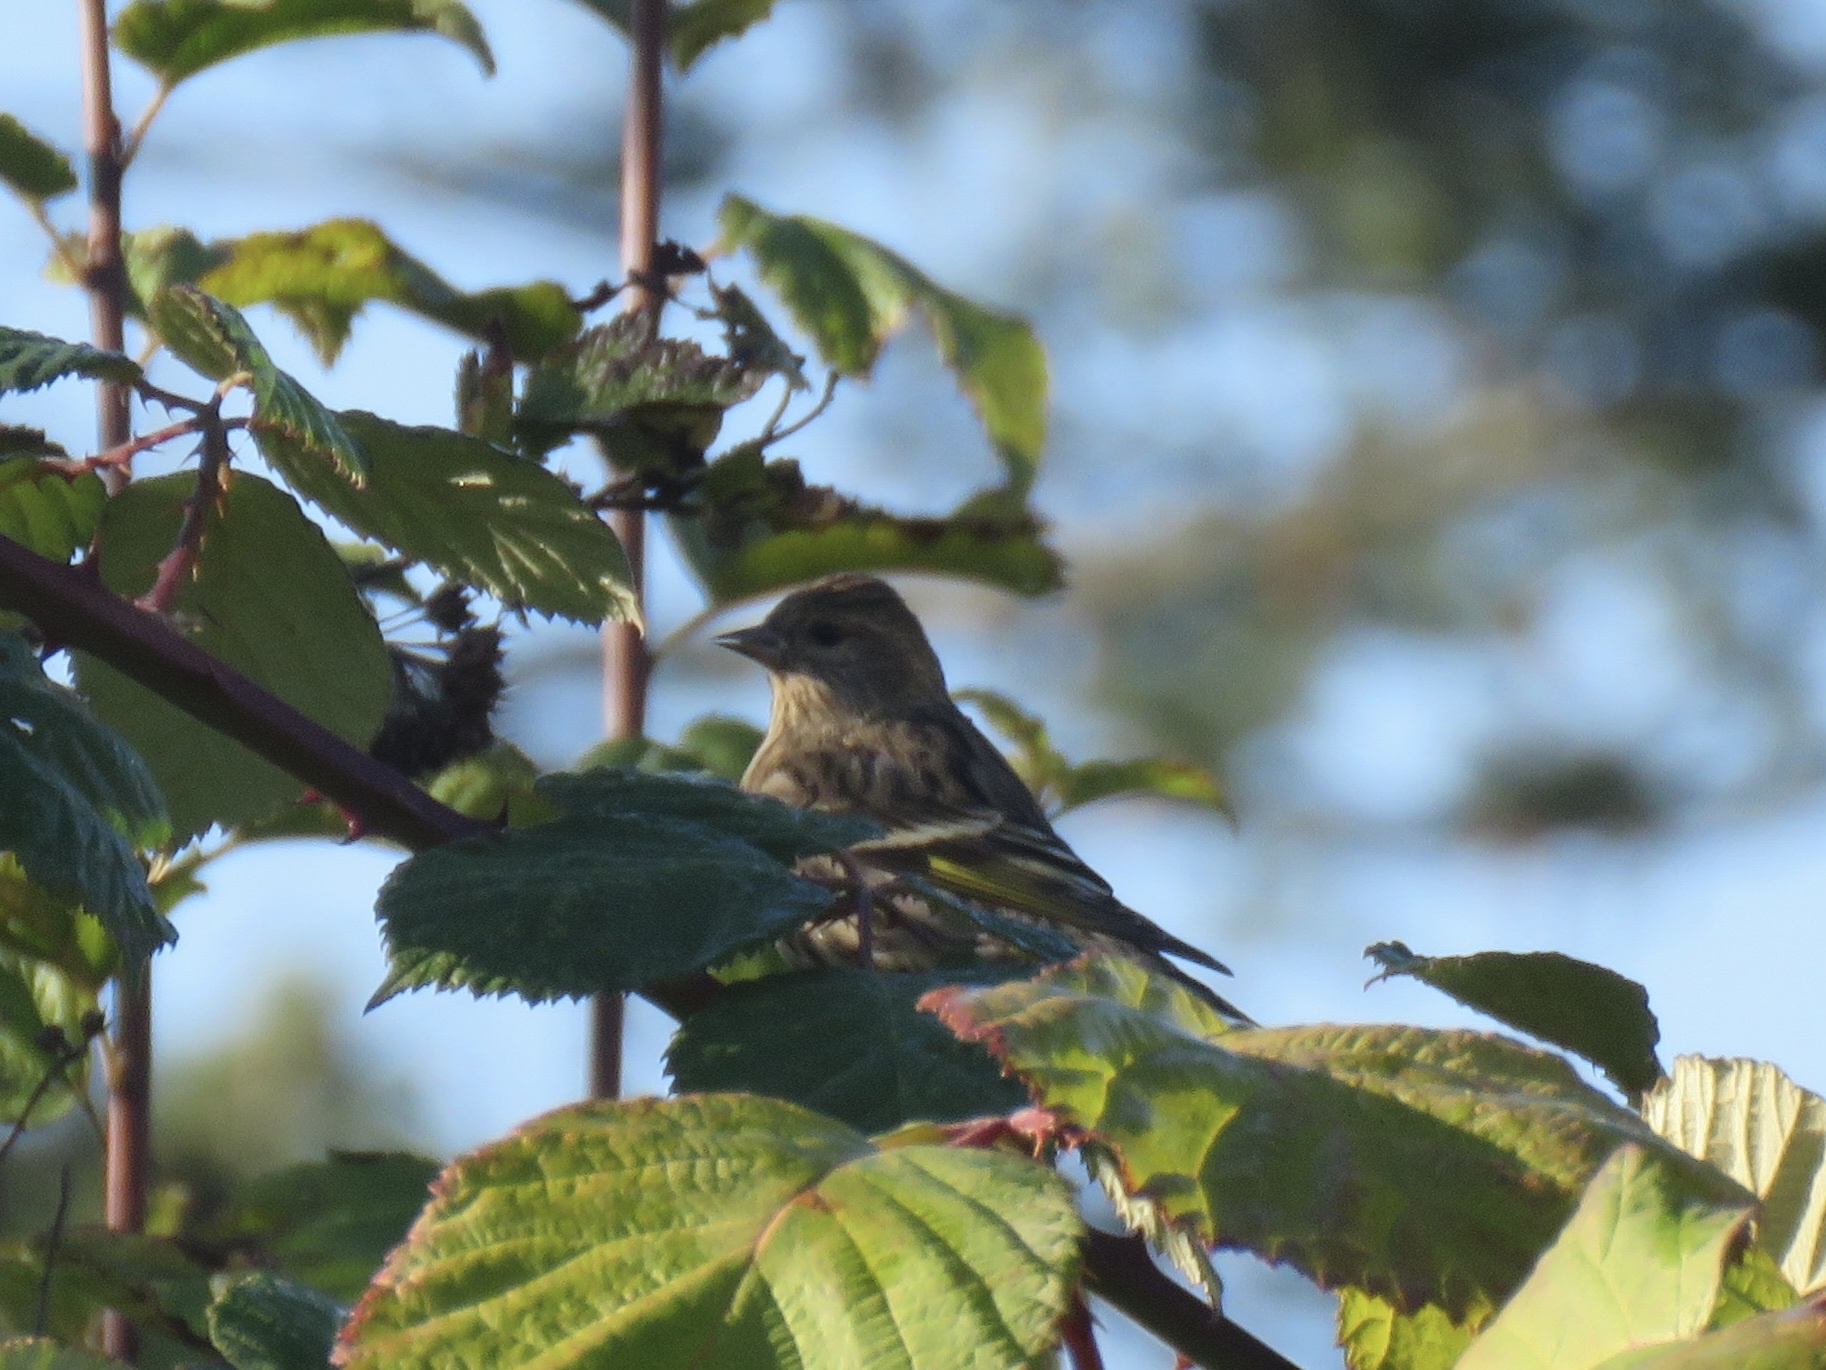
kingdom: Animalia
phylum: Chordata
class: Aves
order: Passeriformes
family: Fringillidae
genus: Spinus
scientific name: Spinus pinus
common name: Pine siskin
